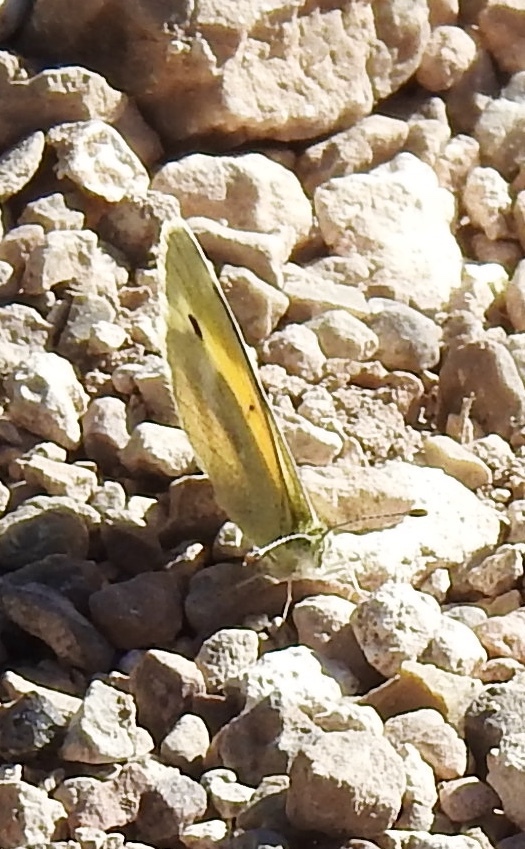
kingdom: Animalia
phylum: Arthropoda
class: Insecta
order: Lepidoptera
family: Pieridae
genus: Nathalis
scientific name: Nathalis iole
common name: Dainty sulphur
